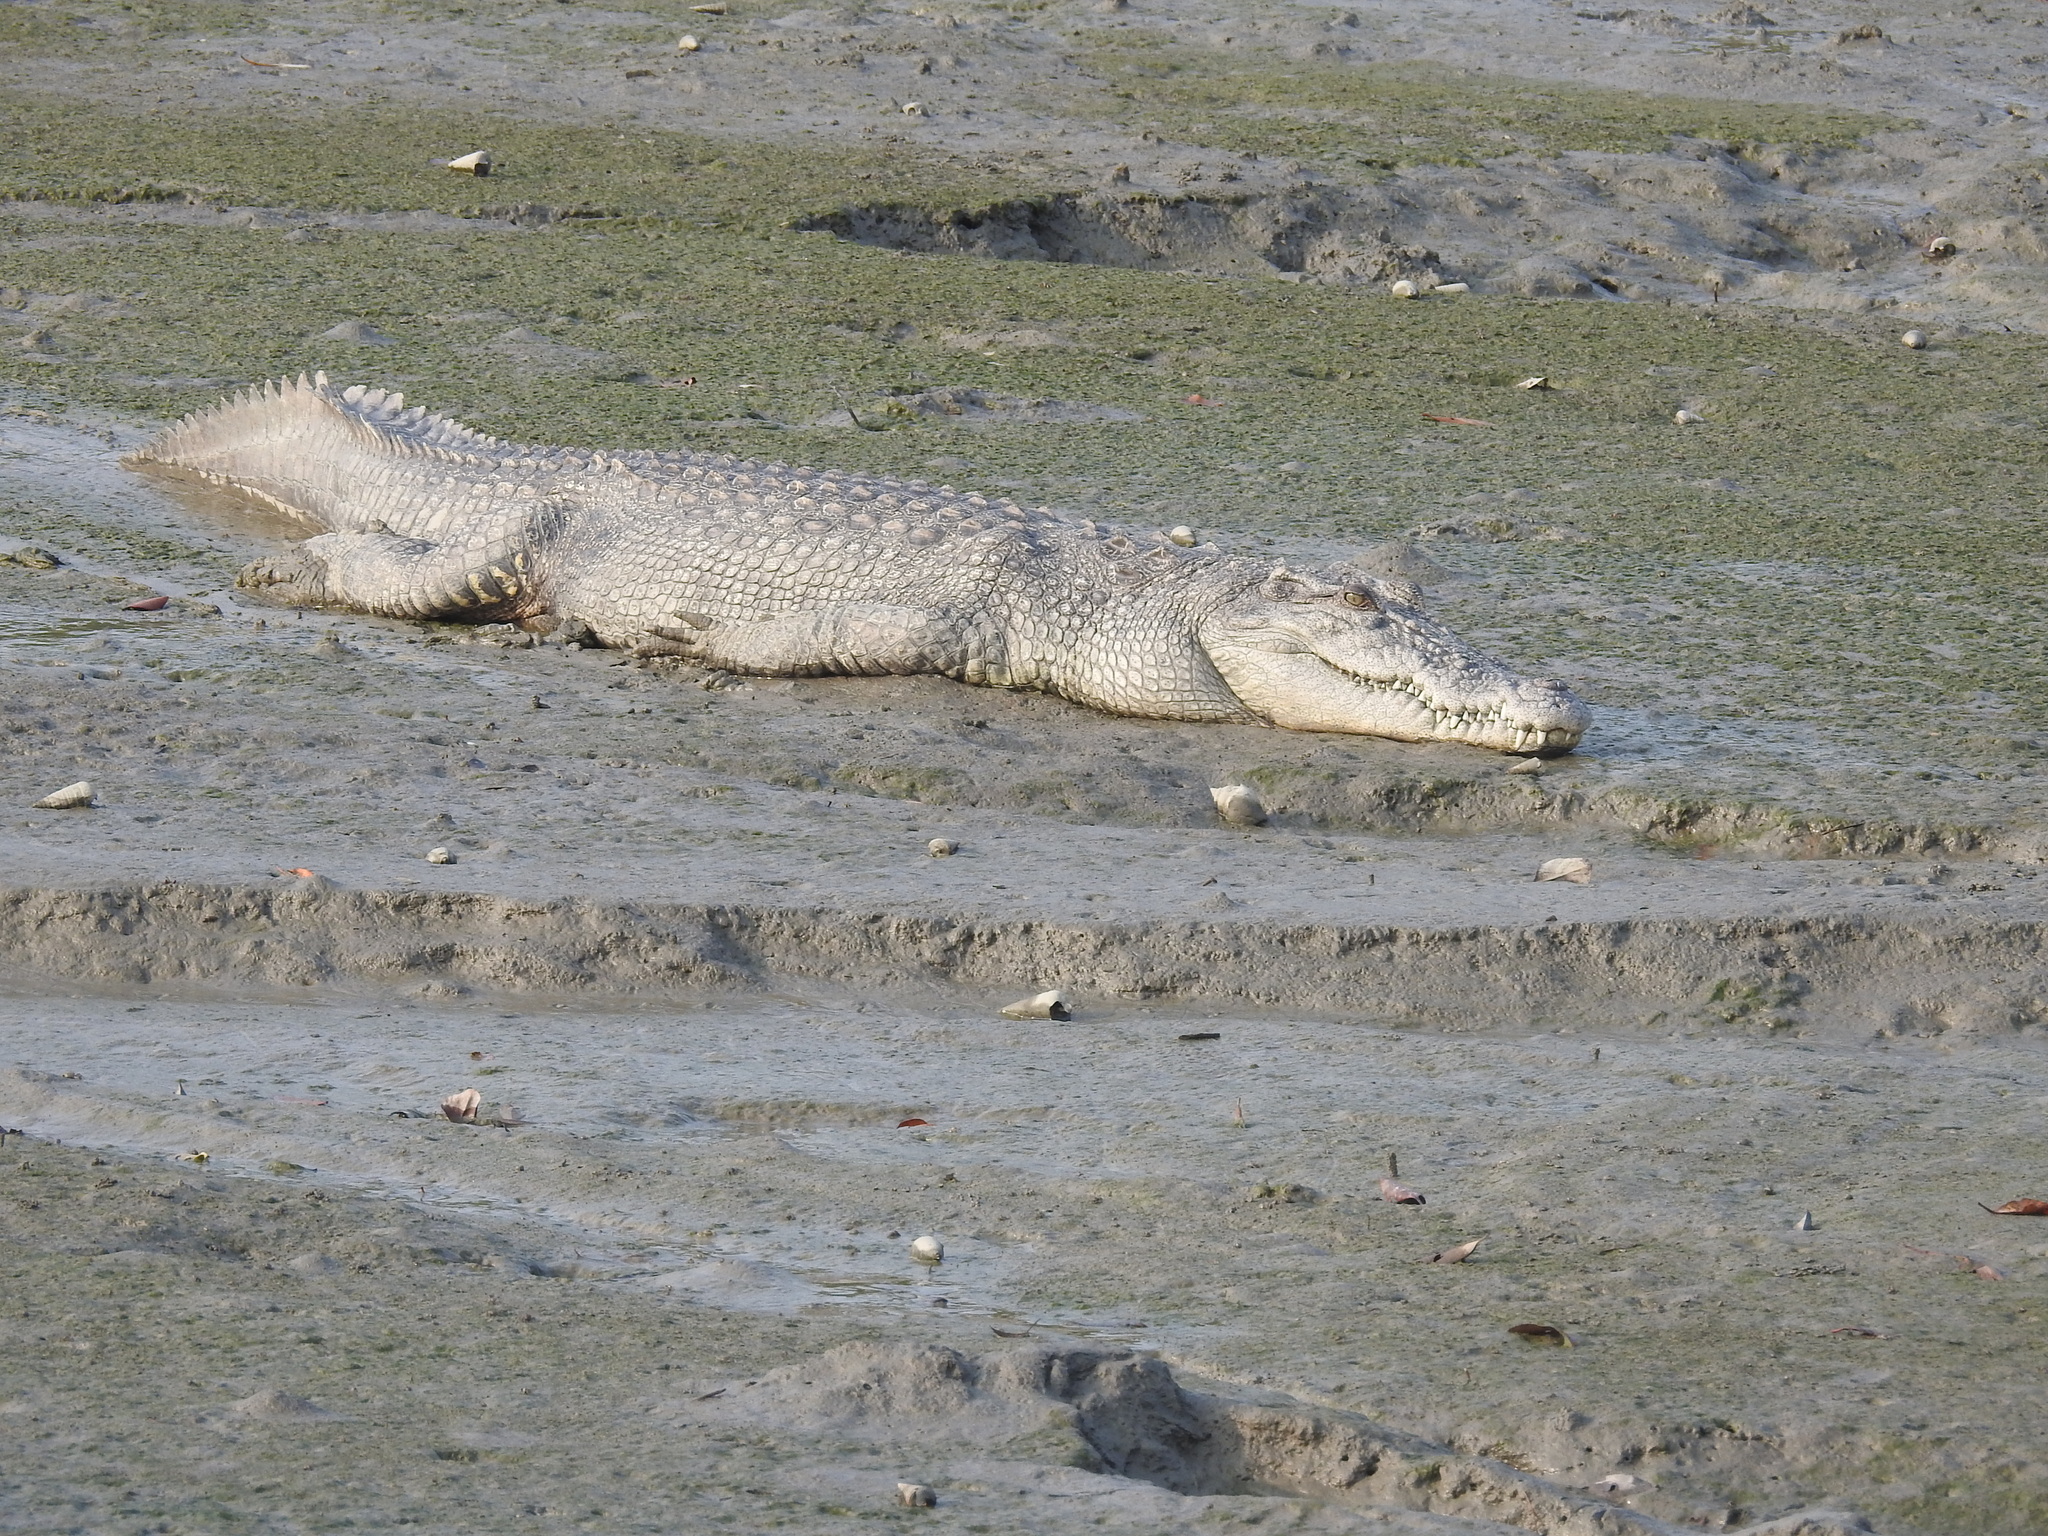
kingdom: Animalia
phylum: Chordata
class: Crocodylia
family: Crocodylidae
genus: Crocodylus
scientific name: Crocodylus porosus
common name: Saltwater crocodile
